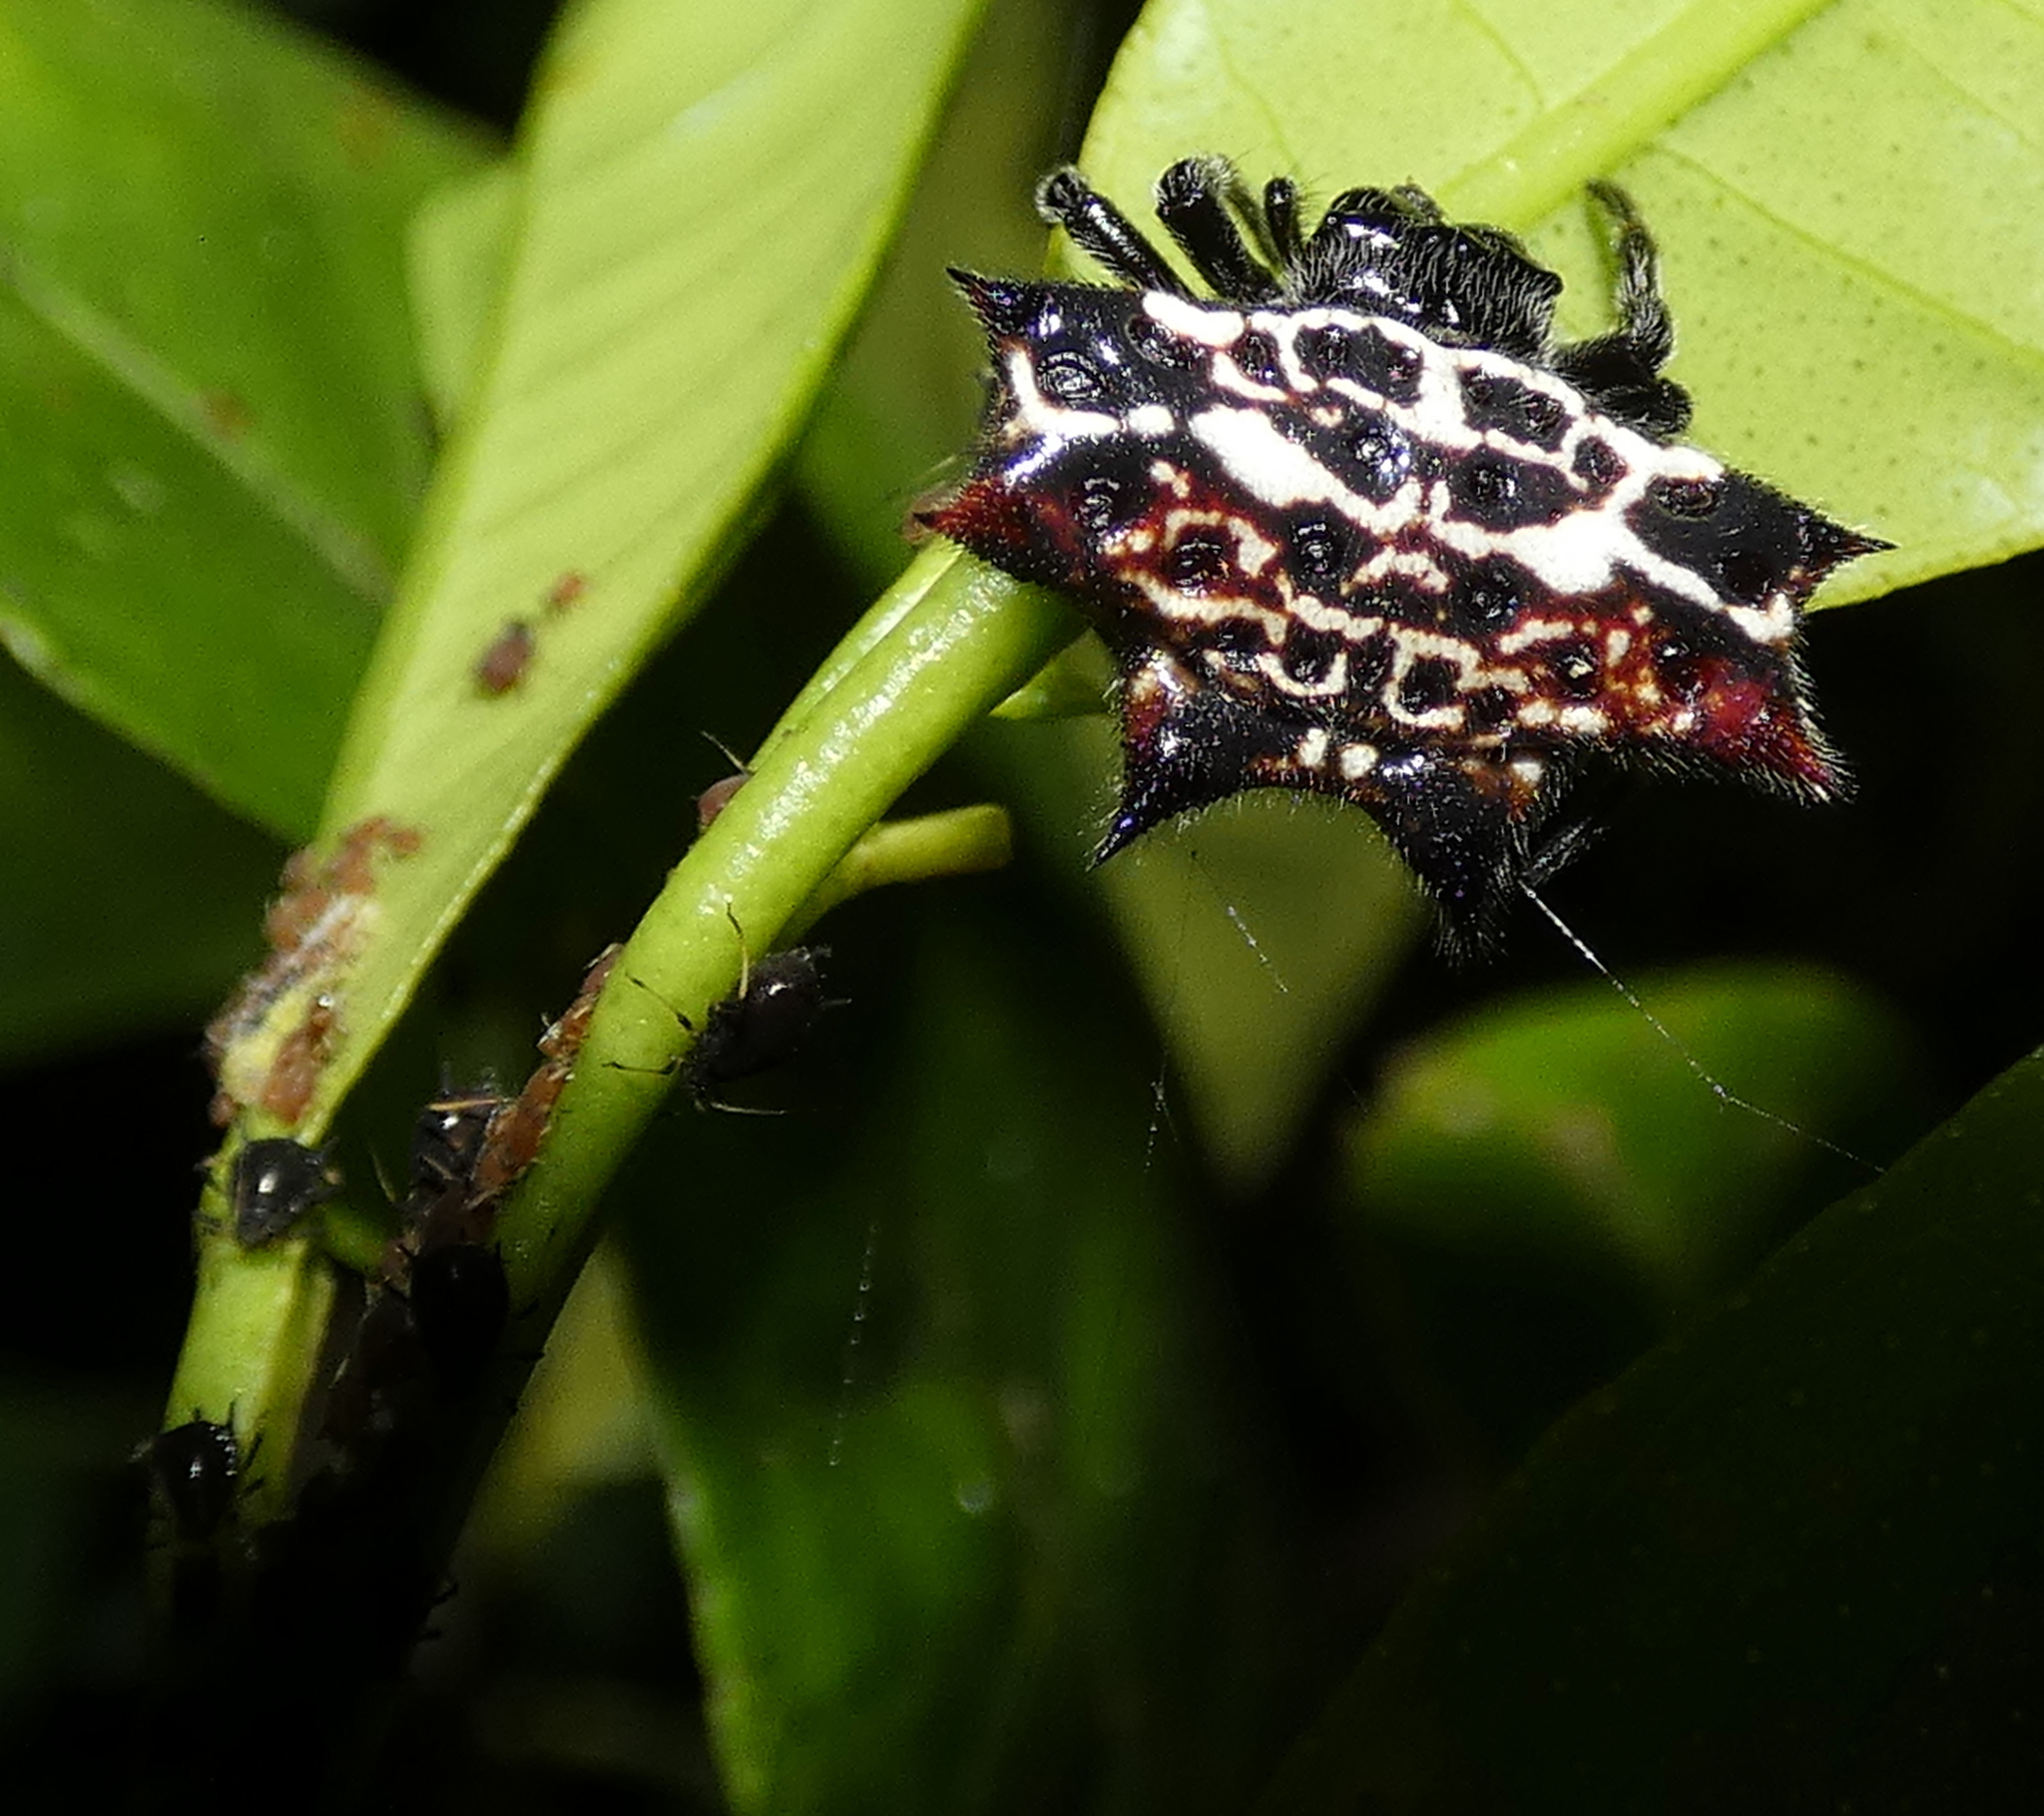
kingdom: Animalia
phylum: Arthropoda
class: Arachnida
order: Araneae
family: Araneidae
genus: Gasteracantha
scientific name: Gasteracantha cancriformis
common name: Orb weavers
